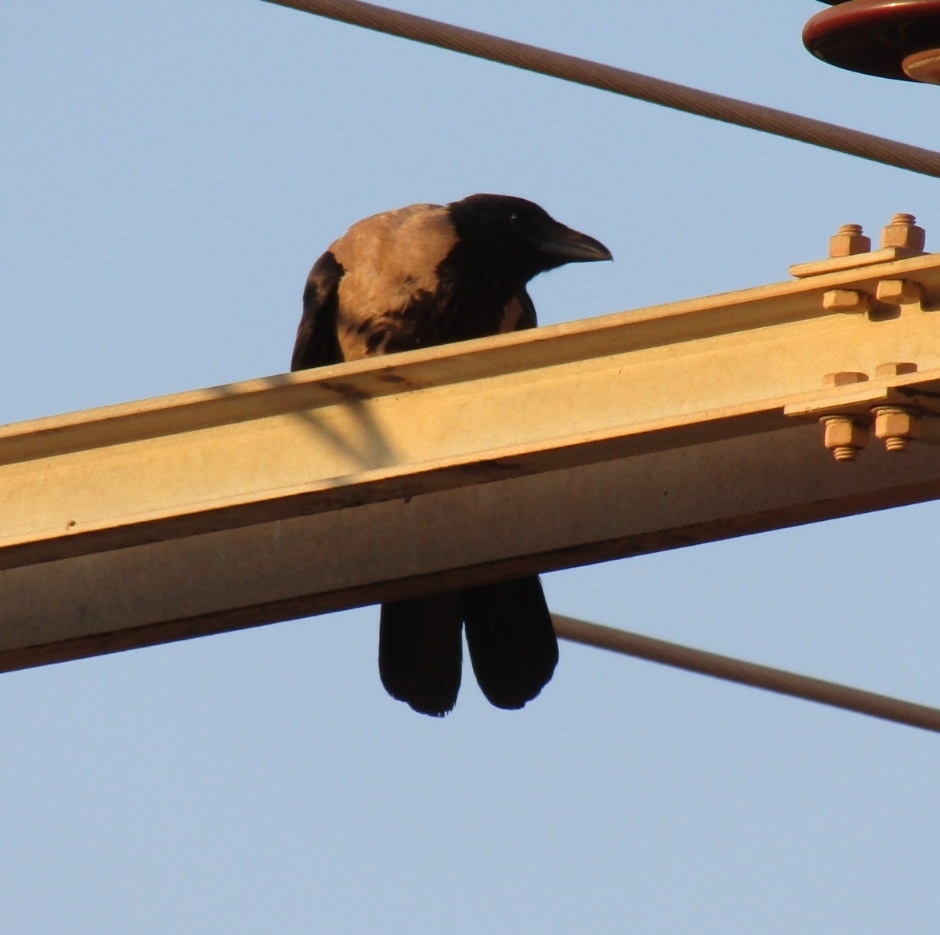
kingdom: Animalia
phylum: Chordata
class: Aves
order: Passeriformes
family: Corvidae
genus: Corvus
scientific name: Corvus cornix
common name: Hooded crow
